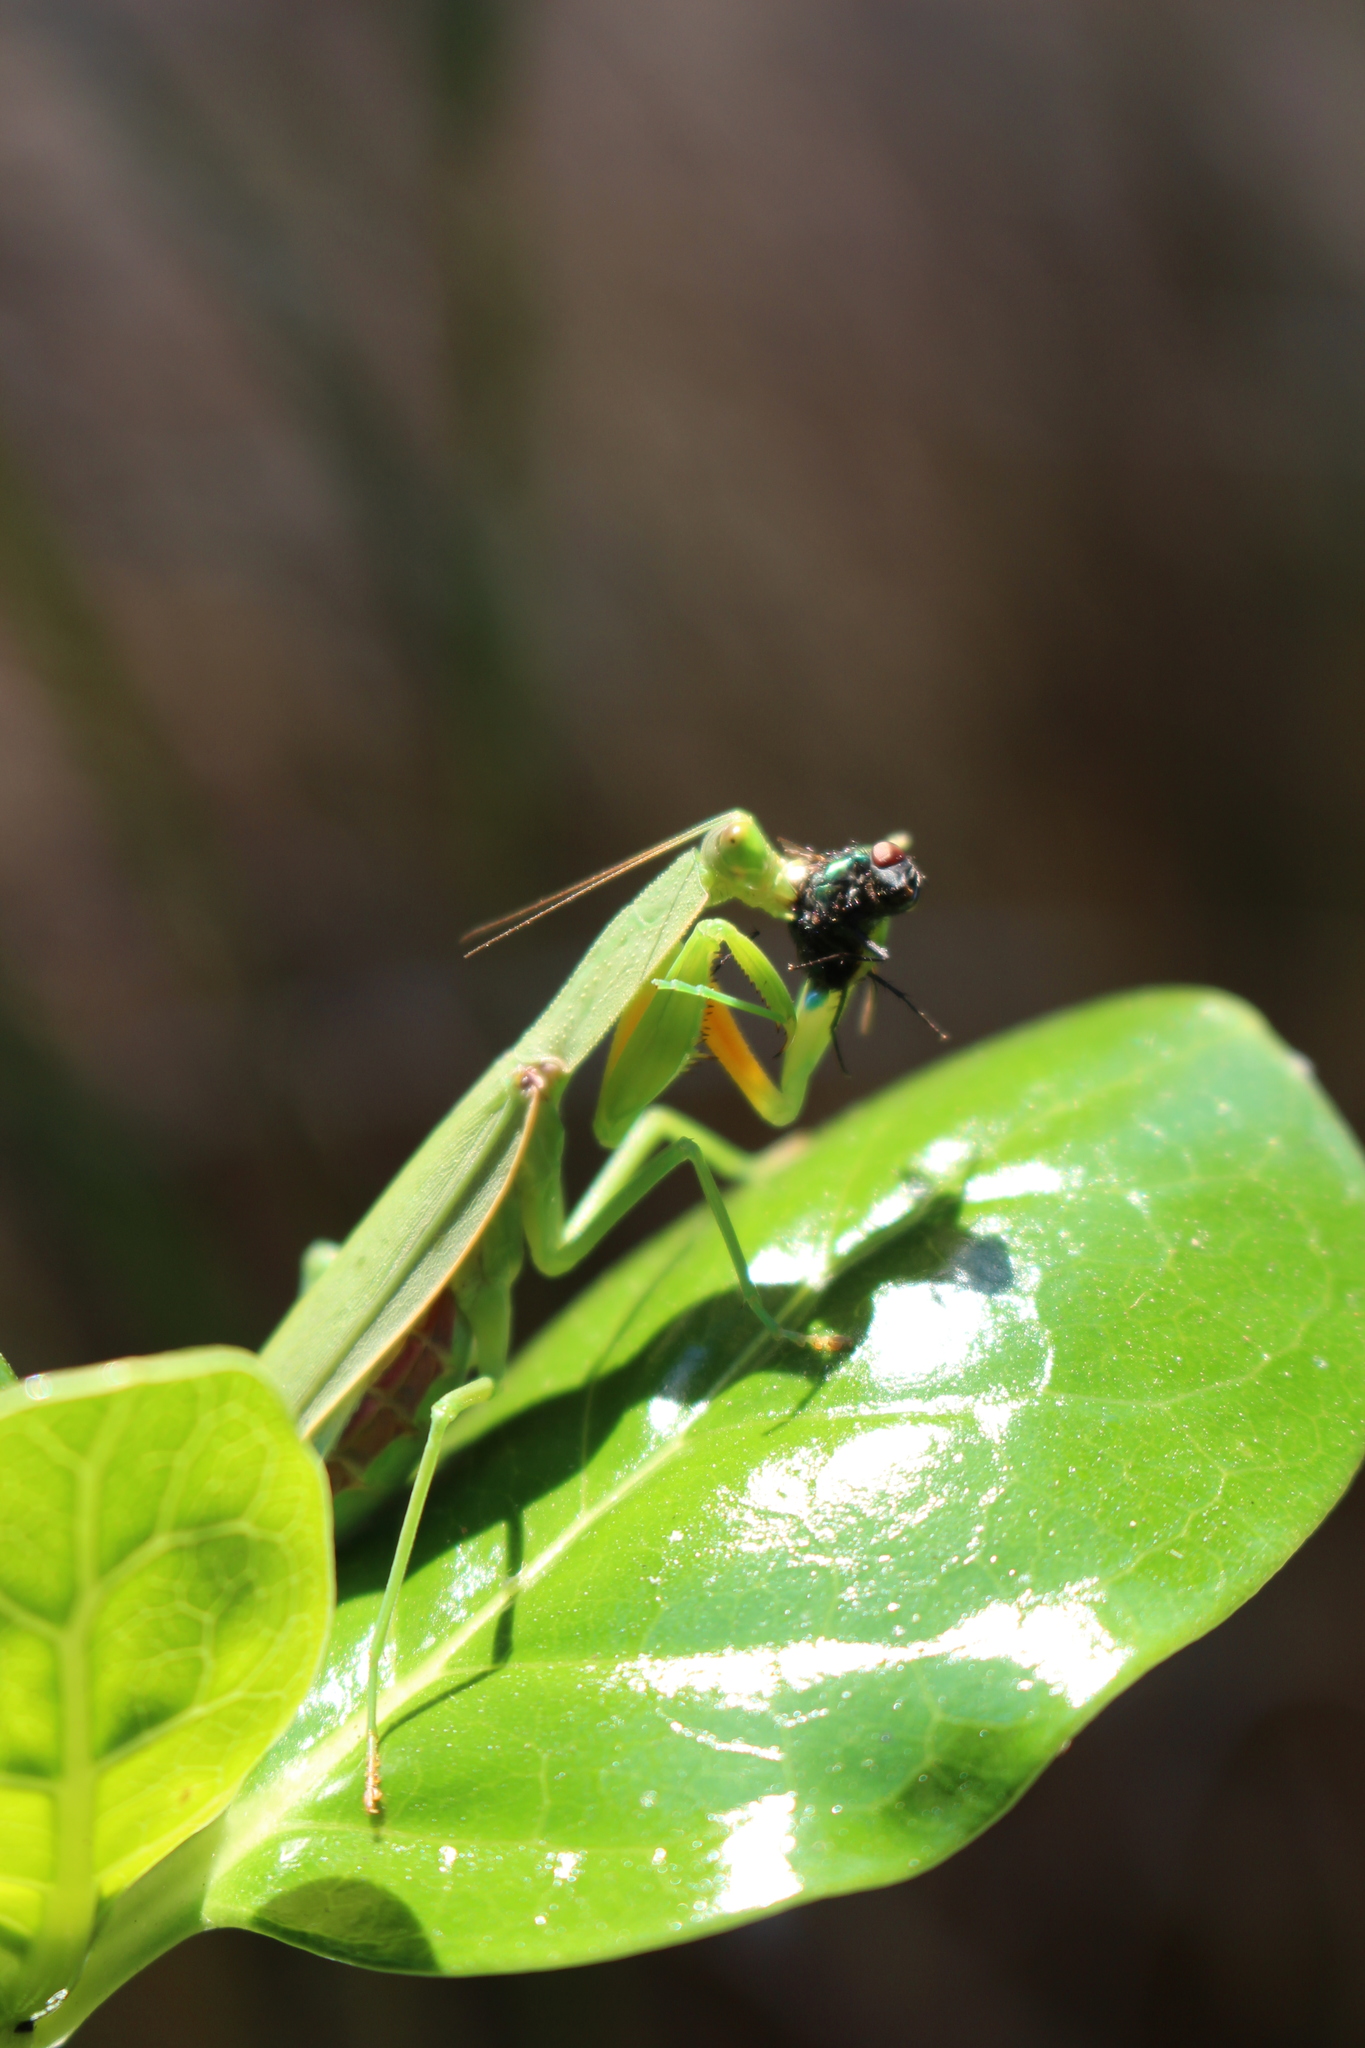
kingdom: Animalia
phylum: Arthropoda
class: Insecta
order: Mantodea
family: Mantidae
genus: Orthodera
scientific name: Orthodera novaezealandiae
